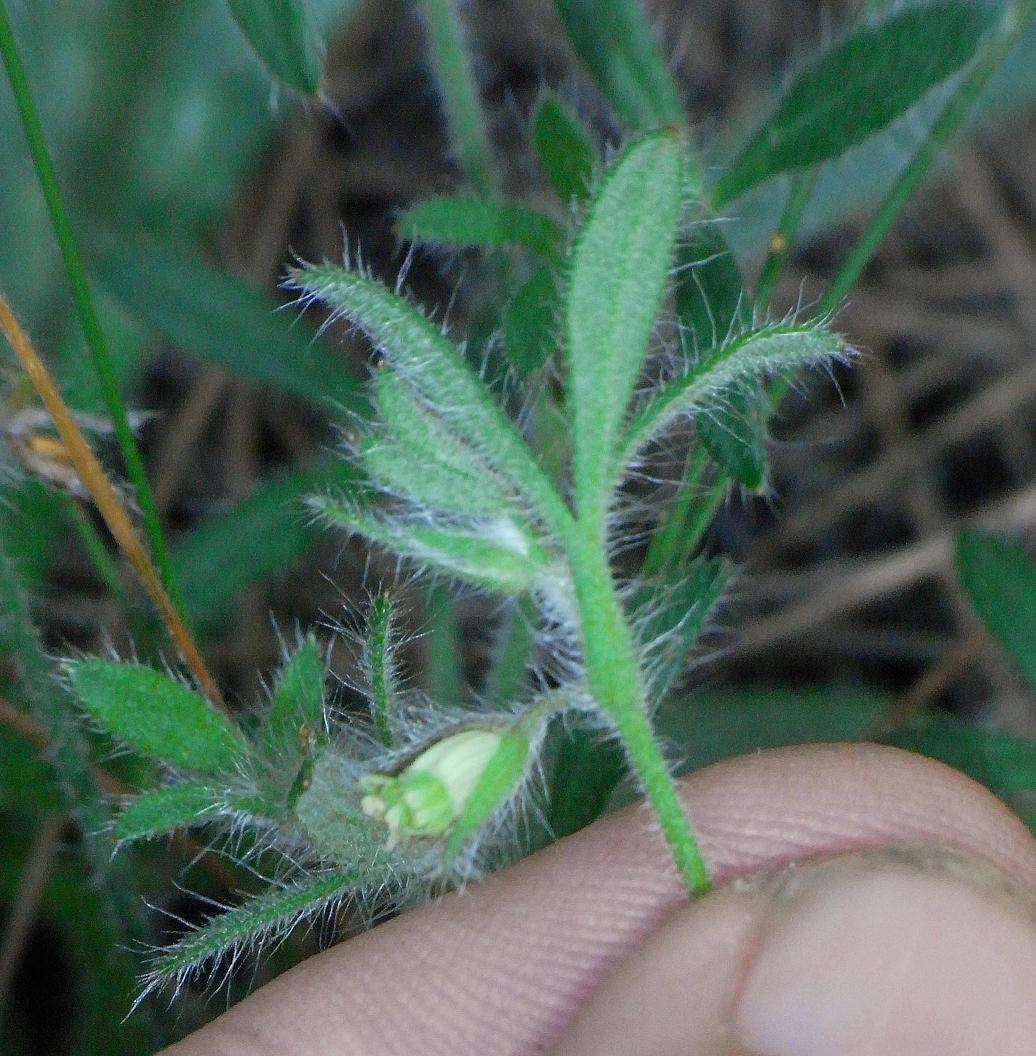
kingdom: Plantae
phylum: Tracheophyta
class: Magnoliopsida
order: Apiales
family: Apiaceae
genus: Xanthosia
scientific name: Xanthosia huegelii
